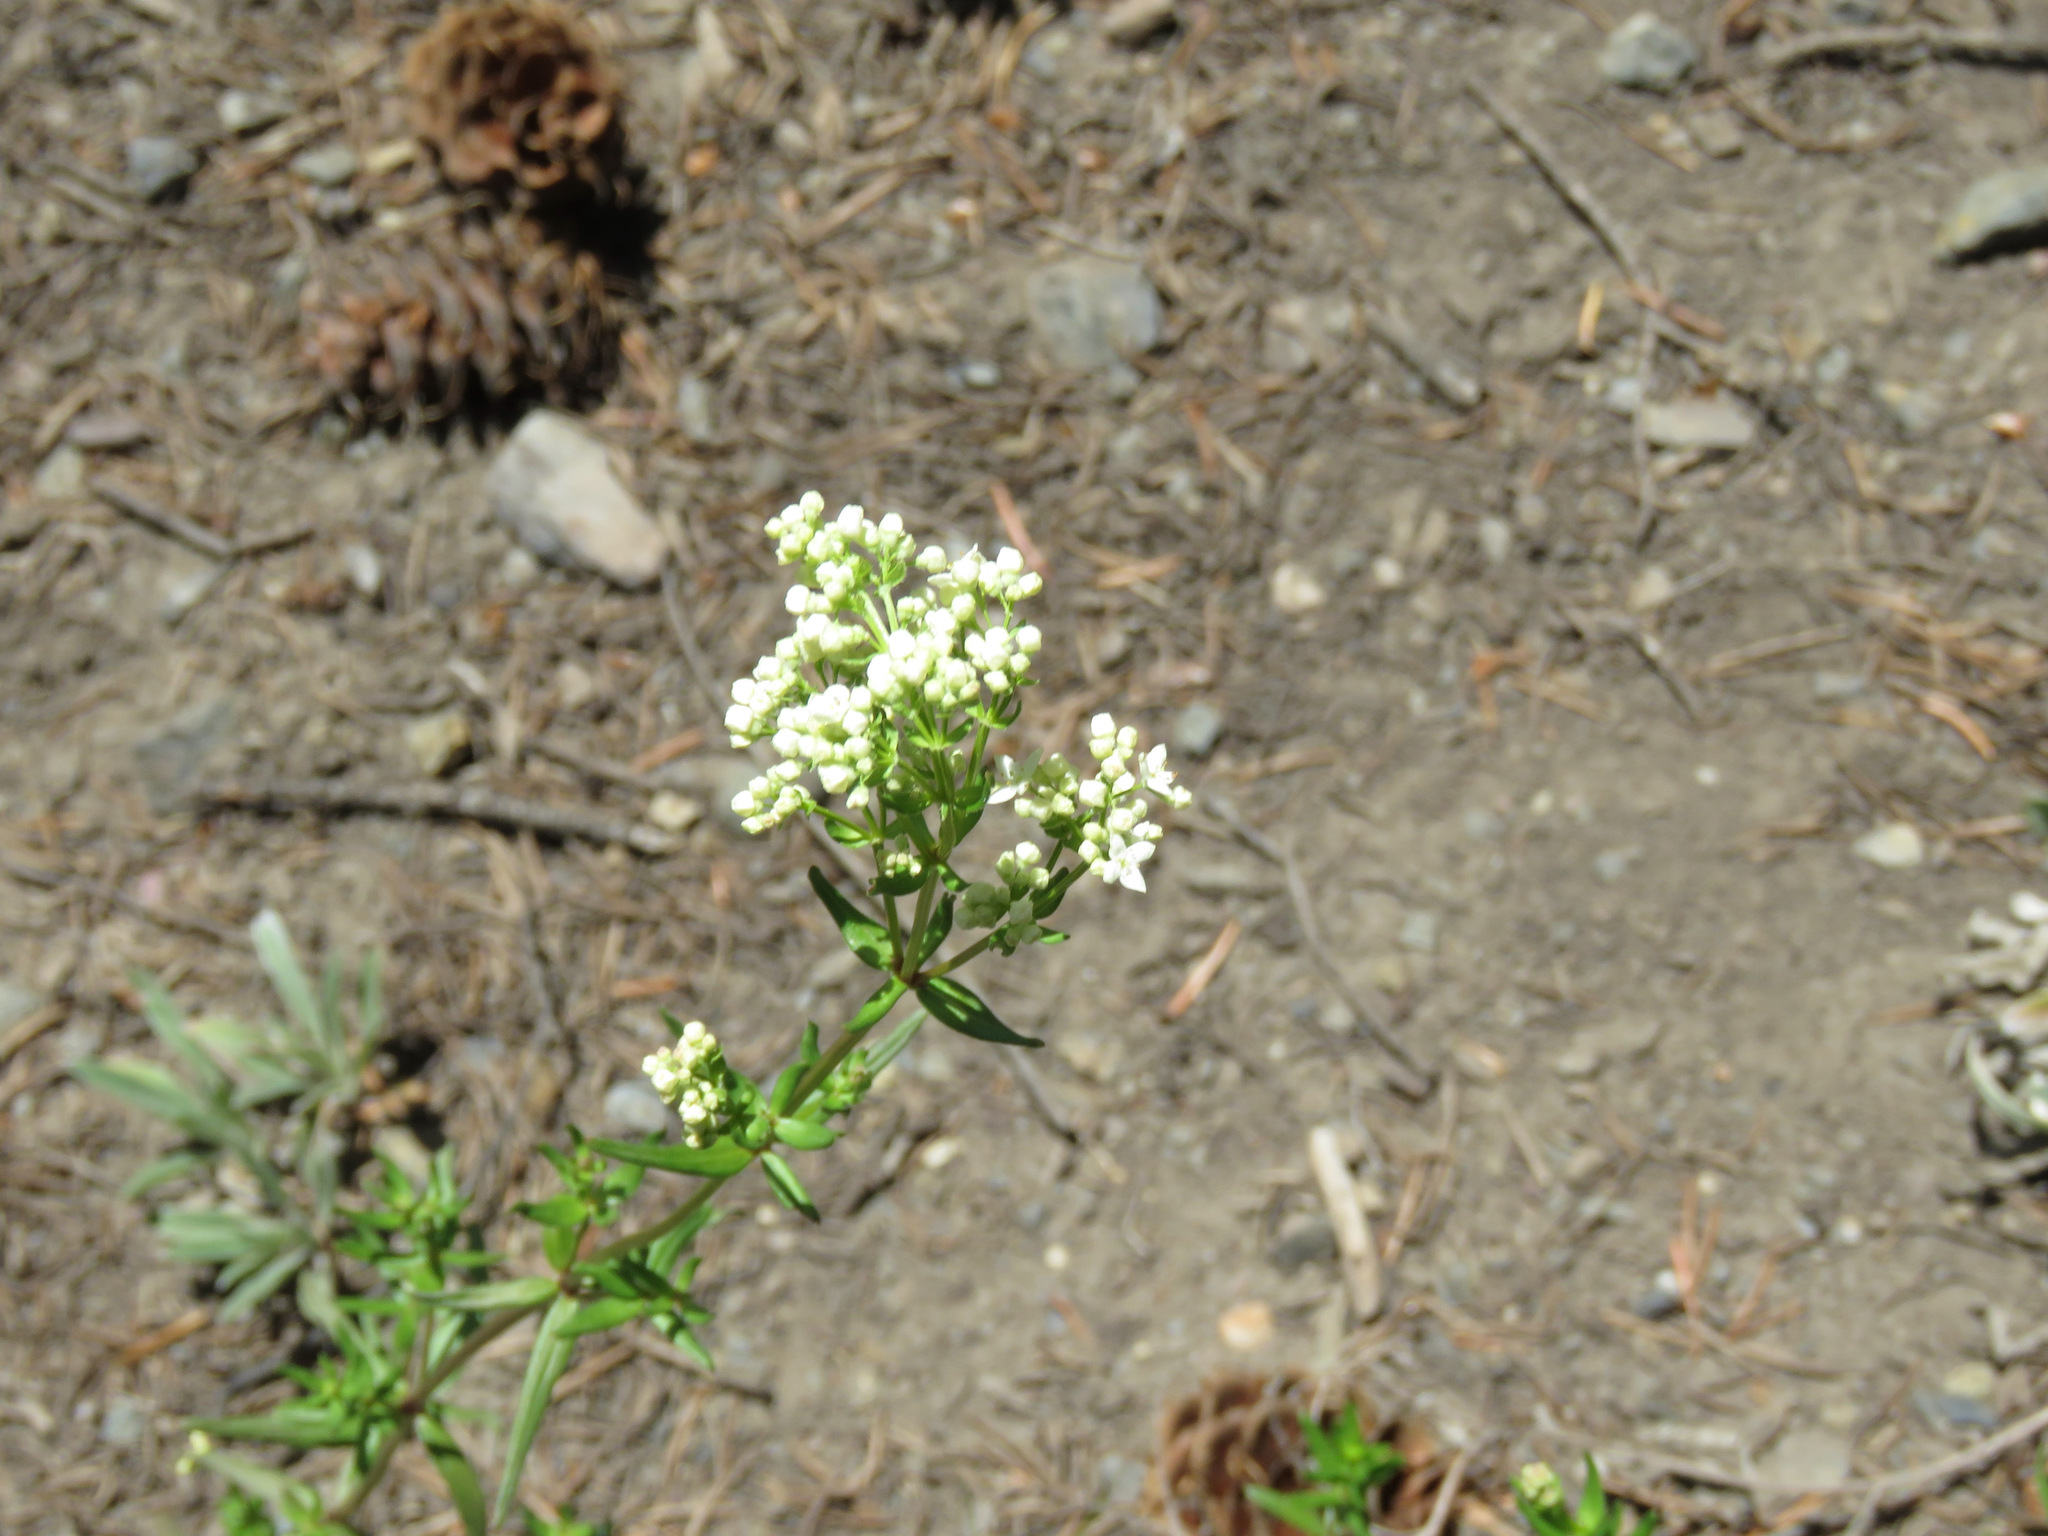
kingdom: Plantae
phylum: Tracheophyta
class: Magnoliopsida
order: Gentianales
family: Rubiaceae
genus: Galium
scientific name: Galium boreale
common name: Northern bedstraw
